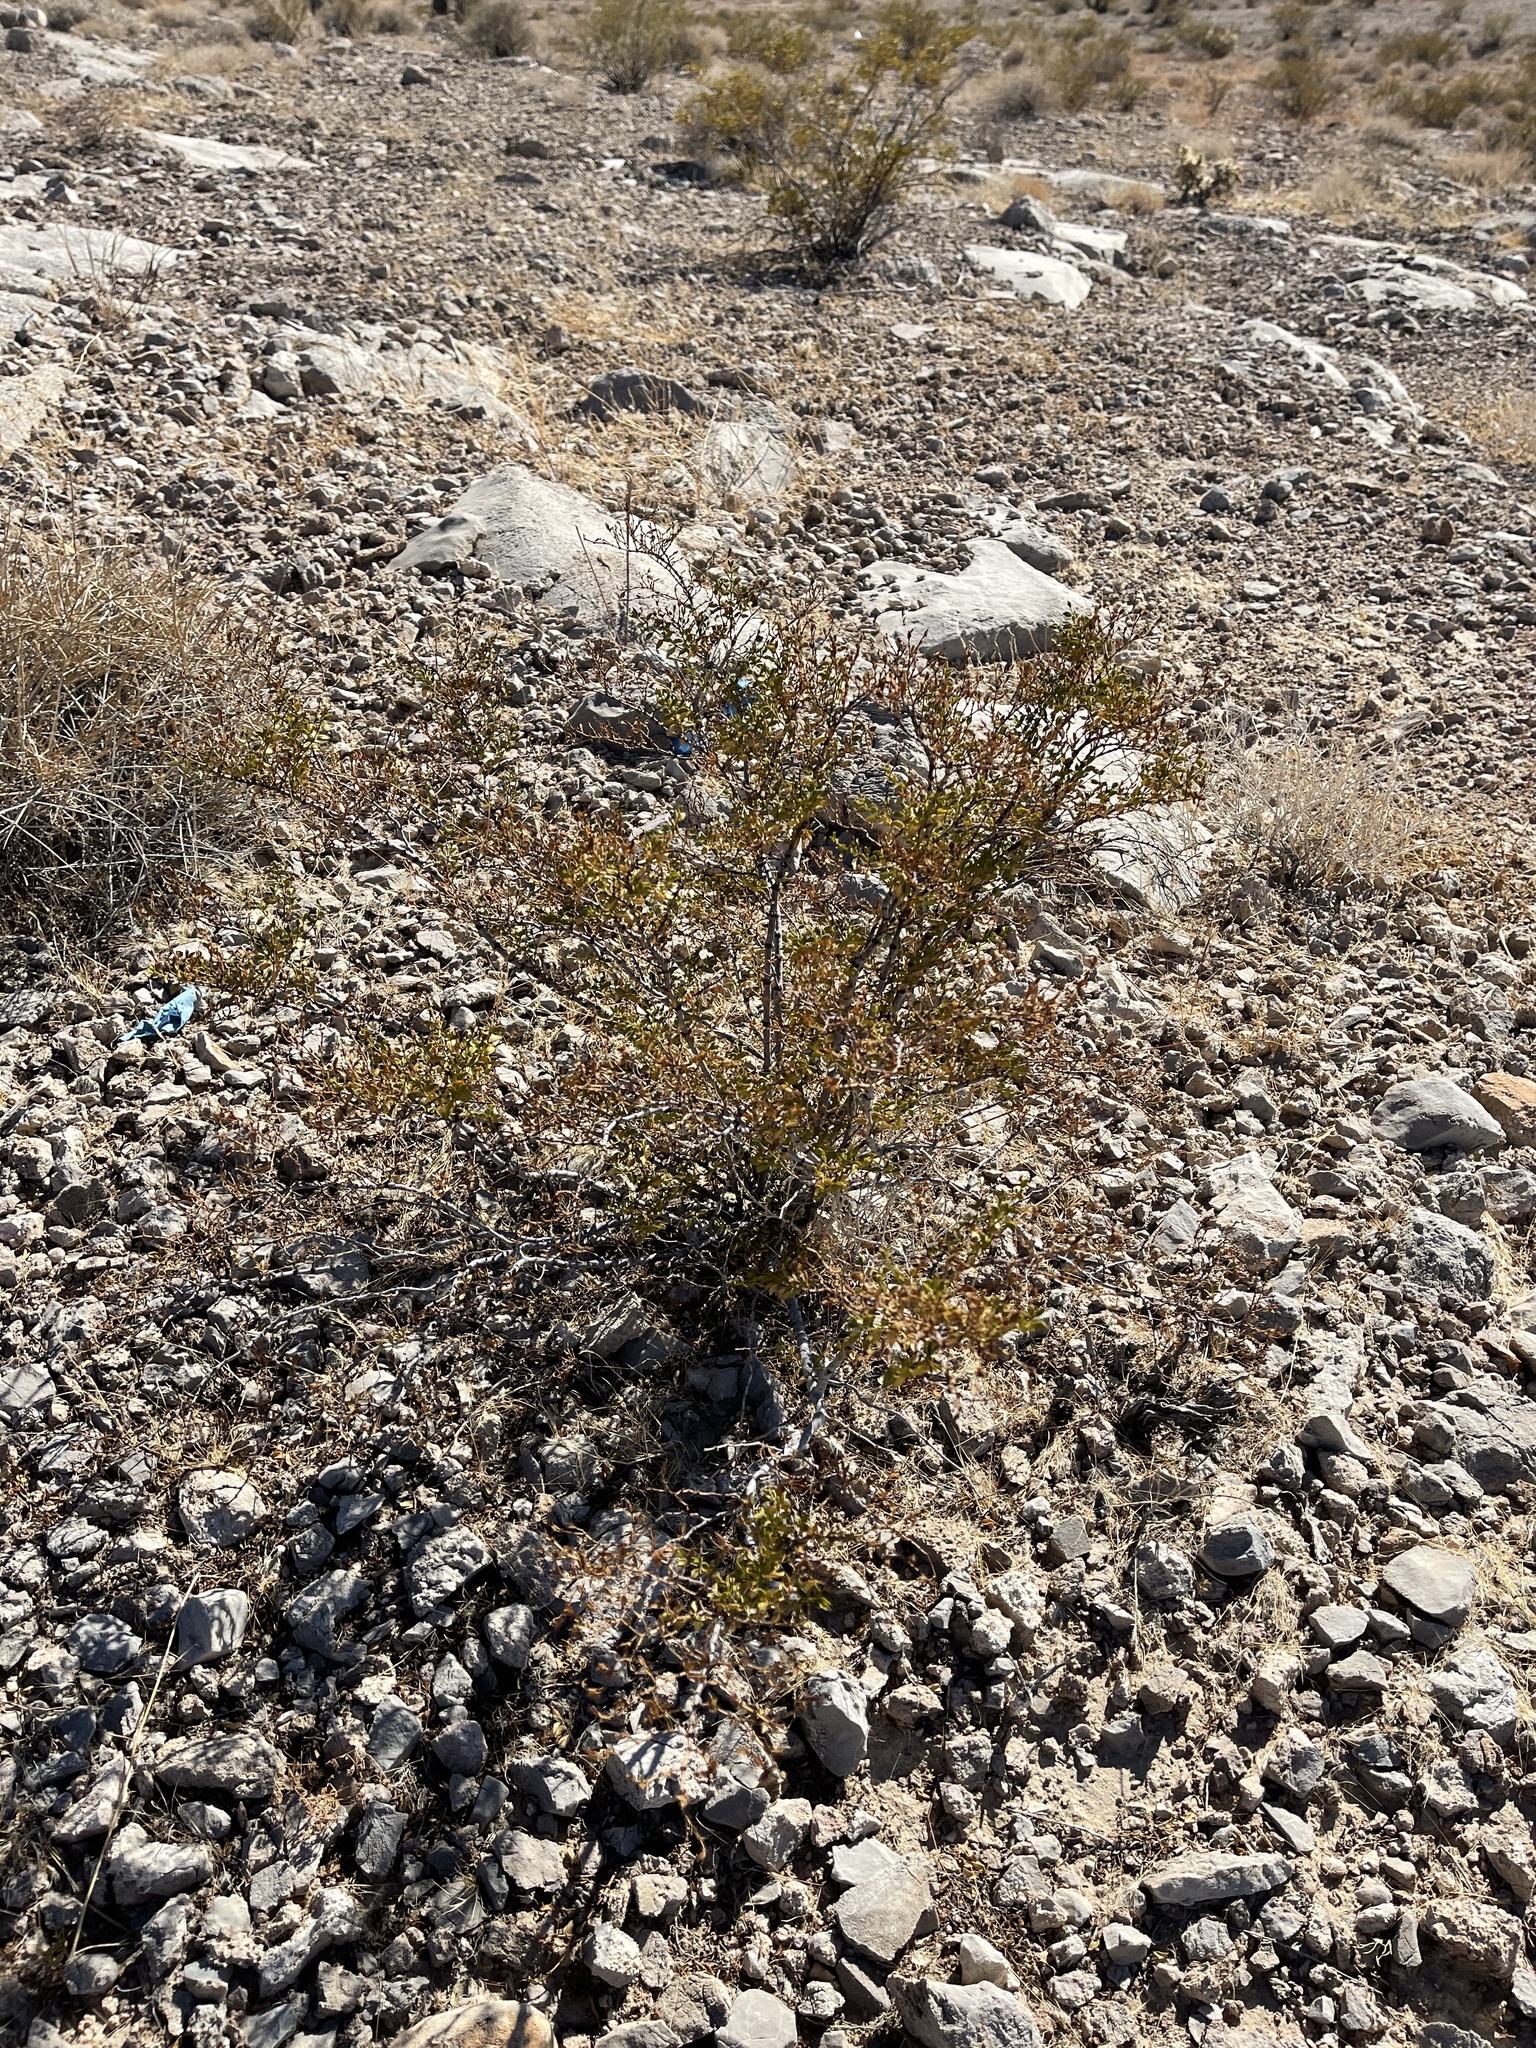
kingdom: Plantae
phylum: Tracheophyta
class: Magnoliopsida
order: Zygophyllales
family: Zygophyllaceae
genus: Larrea
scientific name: Larrea tridentata
